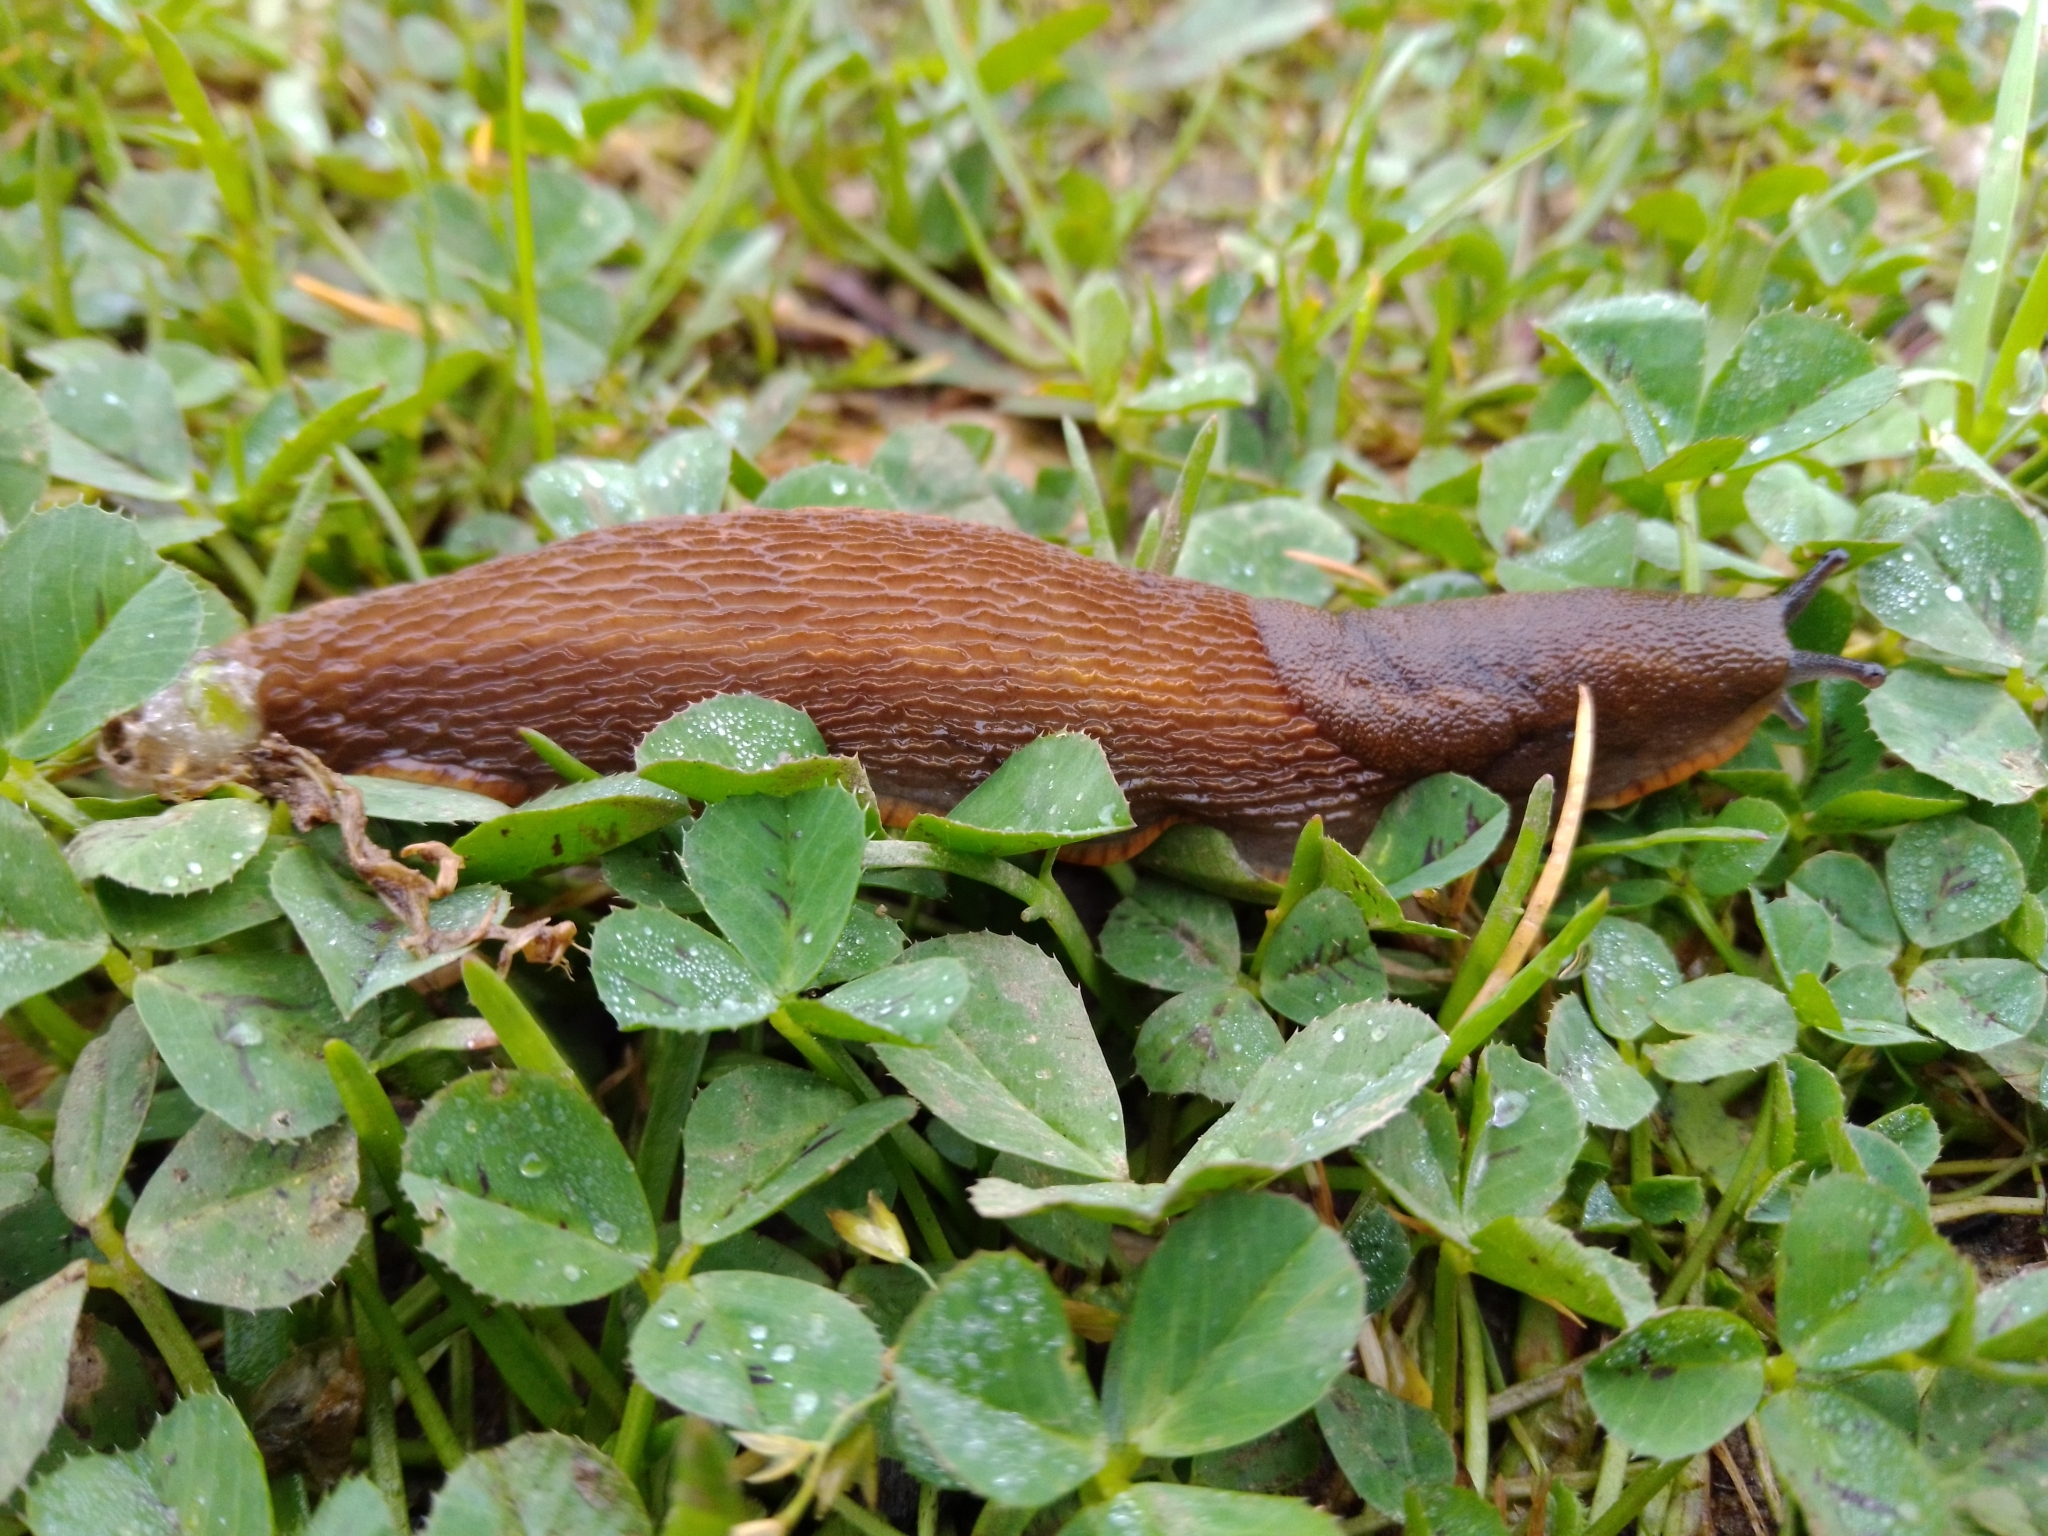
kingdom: Animalia
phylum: Mollusca
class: Gastropoda
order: Stylommatophora
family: Arionidae
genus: Arion
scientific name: Arion vulgaris
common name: Lusitanian slug
